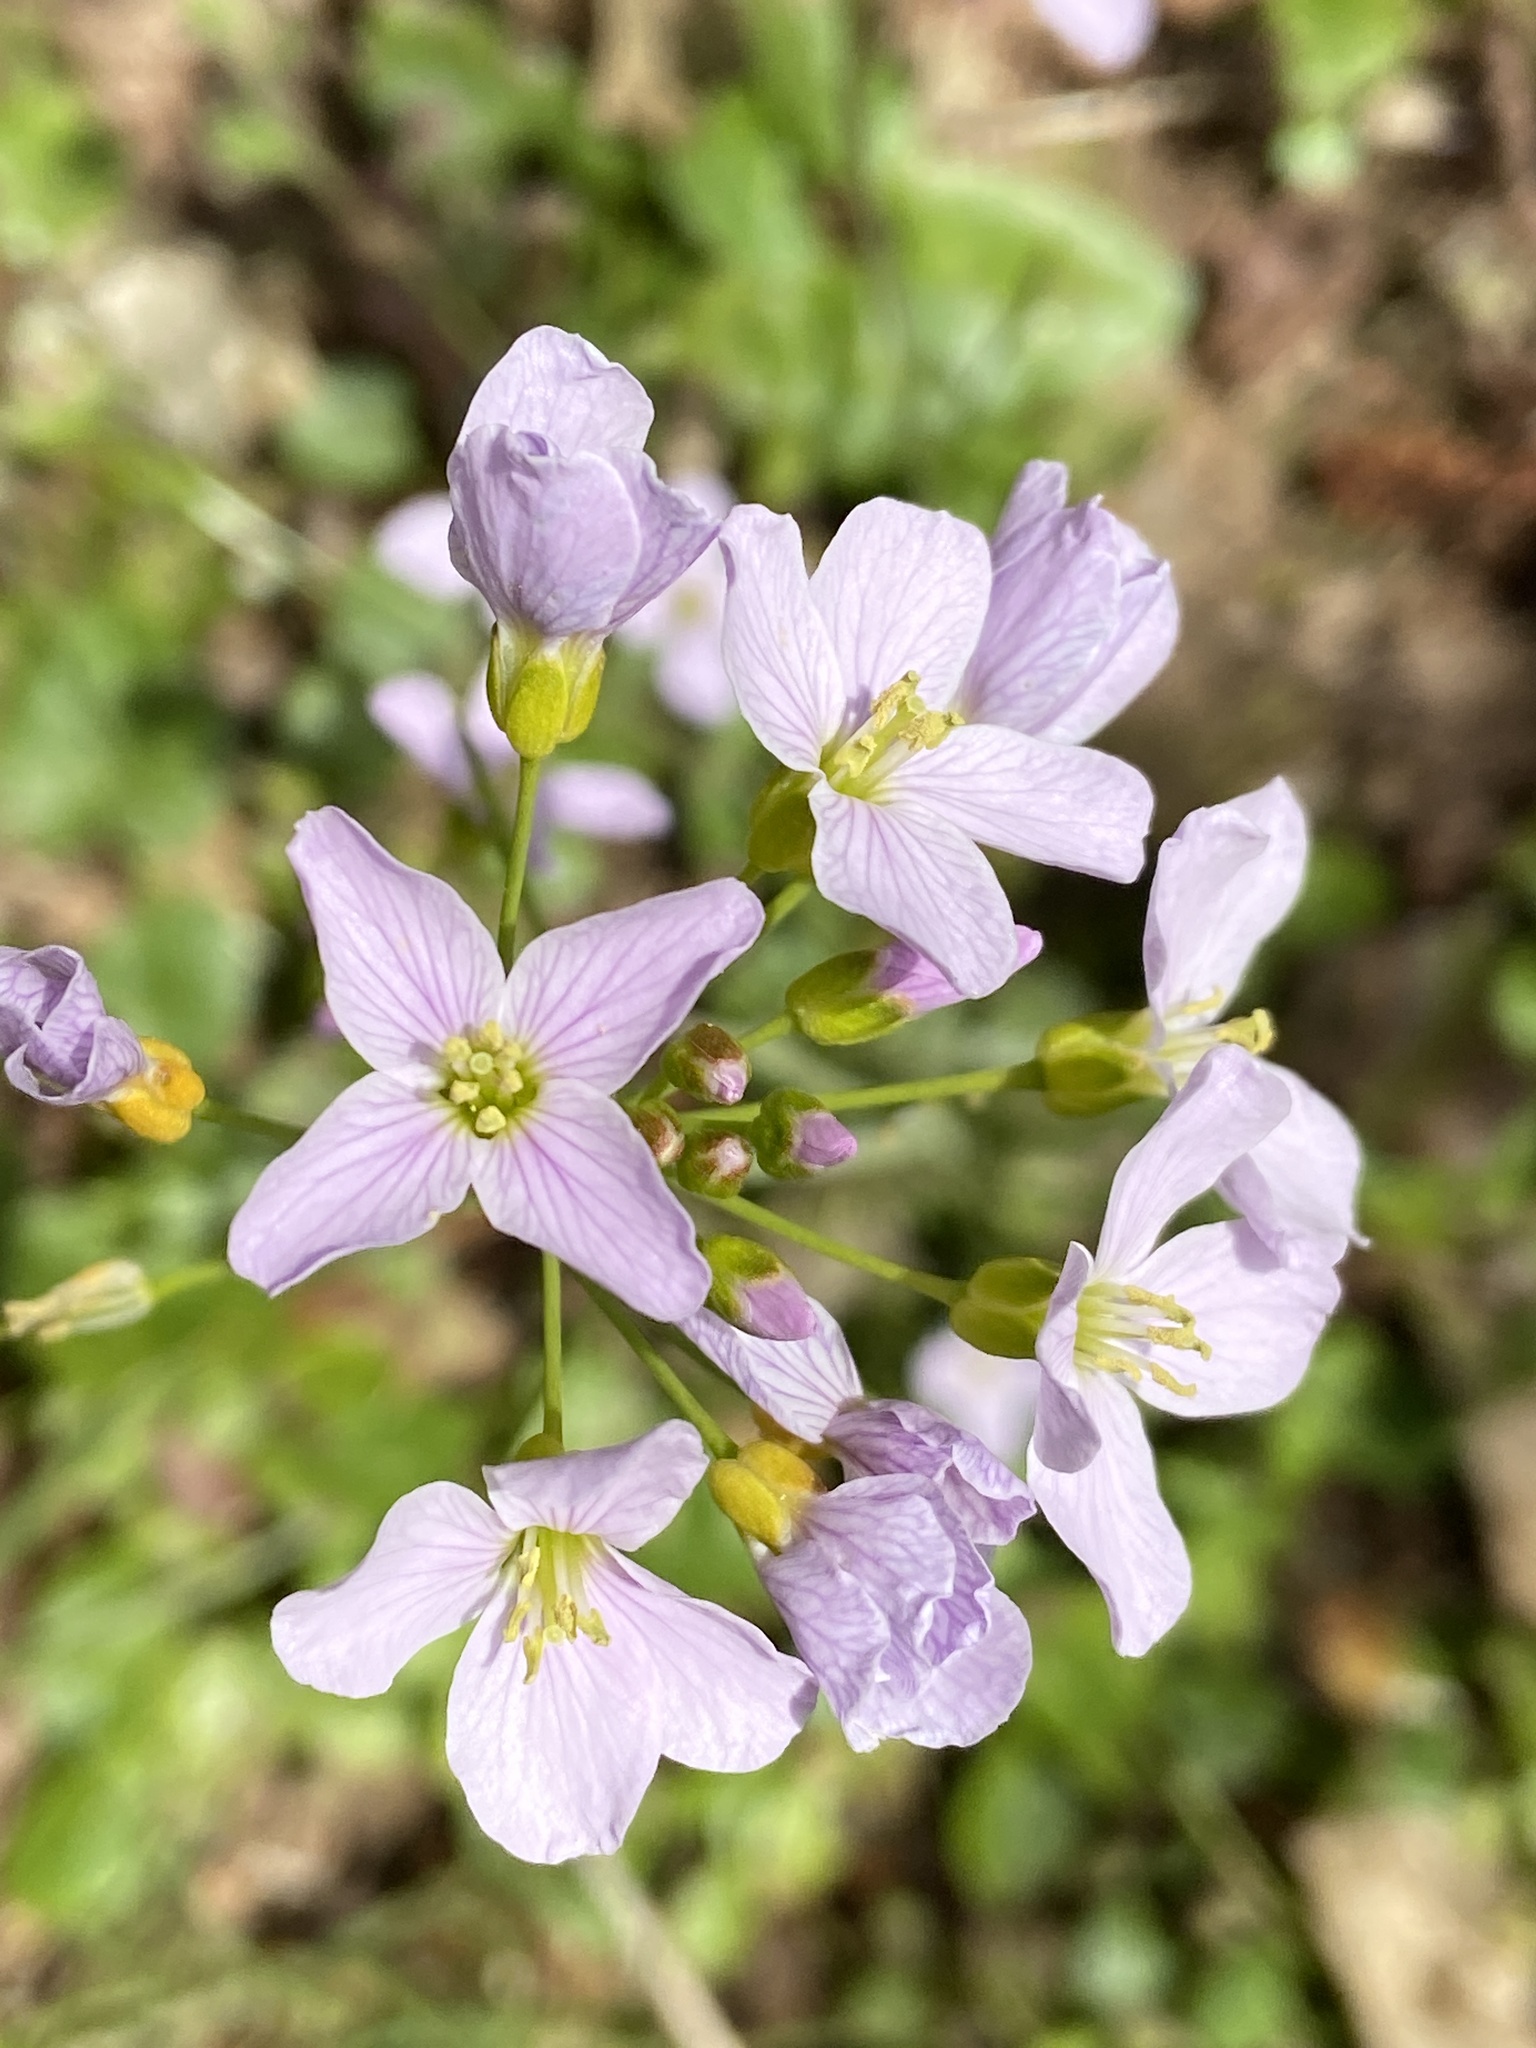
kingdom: Plantae
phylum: Tracheophyta
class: Magnoliopsida
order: Brassicales
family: Brassicaceae
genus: Cardamine
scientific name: Cardamine pratensis
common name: Cuckoo flower
